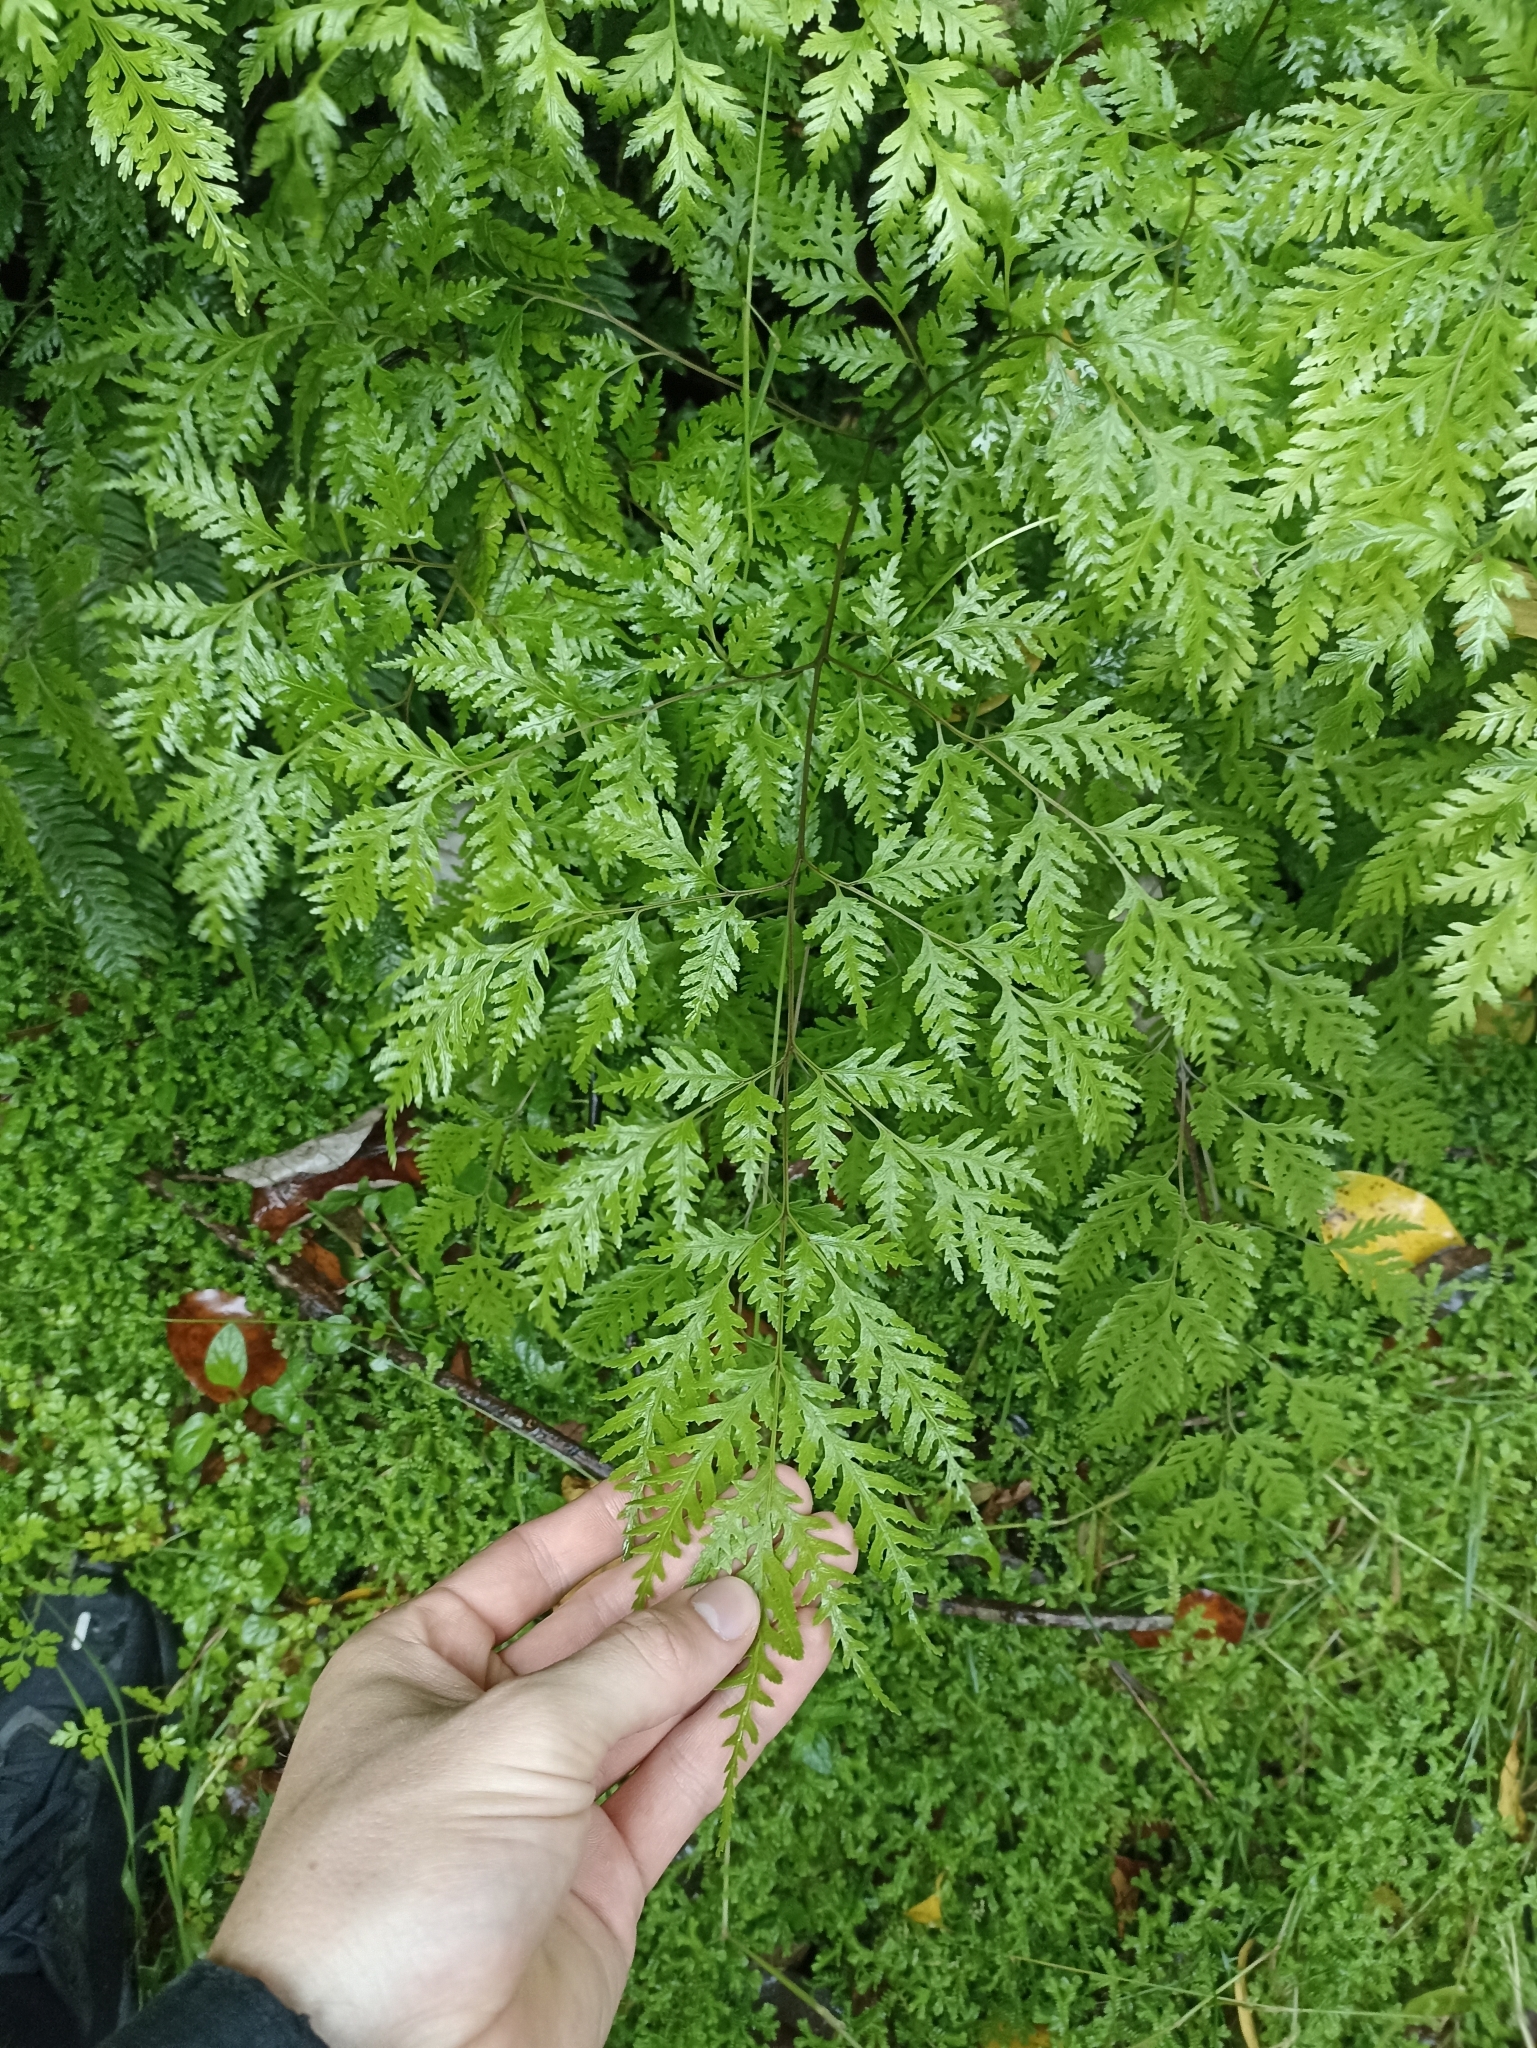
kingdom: Plantae
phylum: Tracheophyta
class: Polypodiopsida
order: Polypodiales
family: Pteridaceae
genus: Pteris
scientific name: Pteris macilenta
